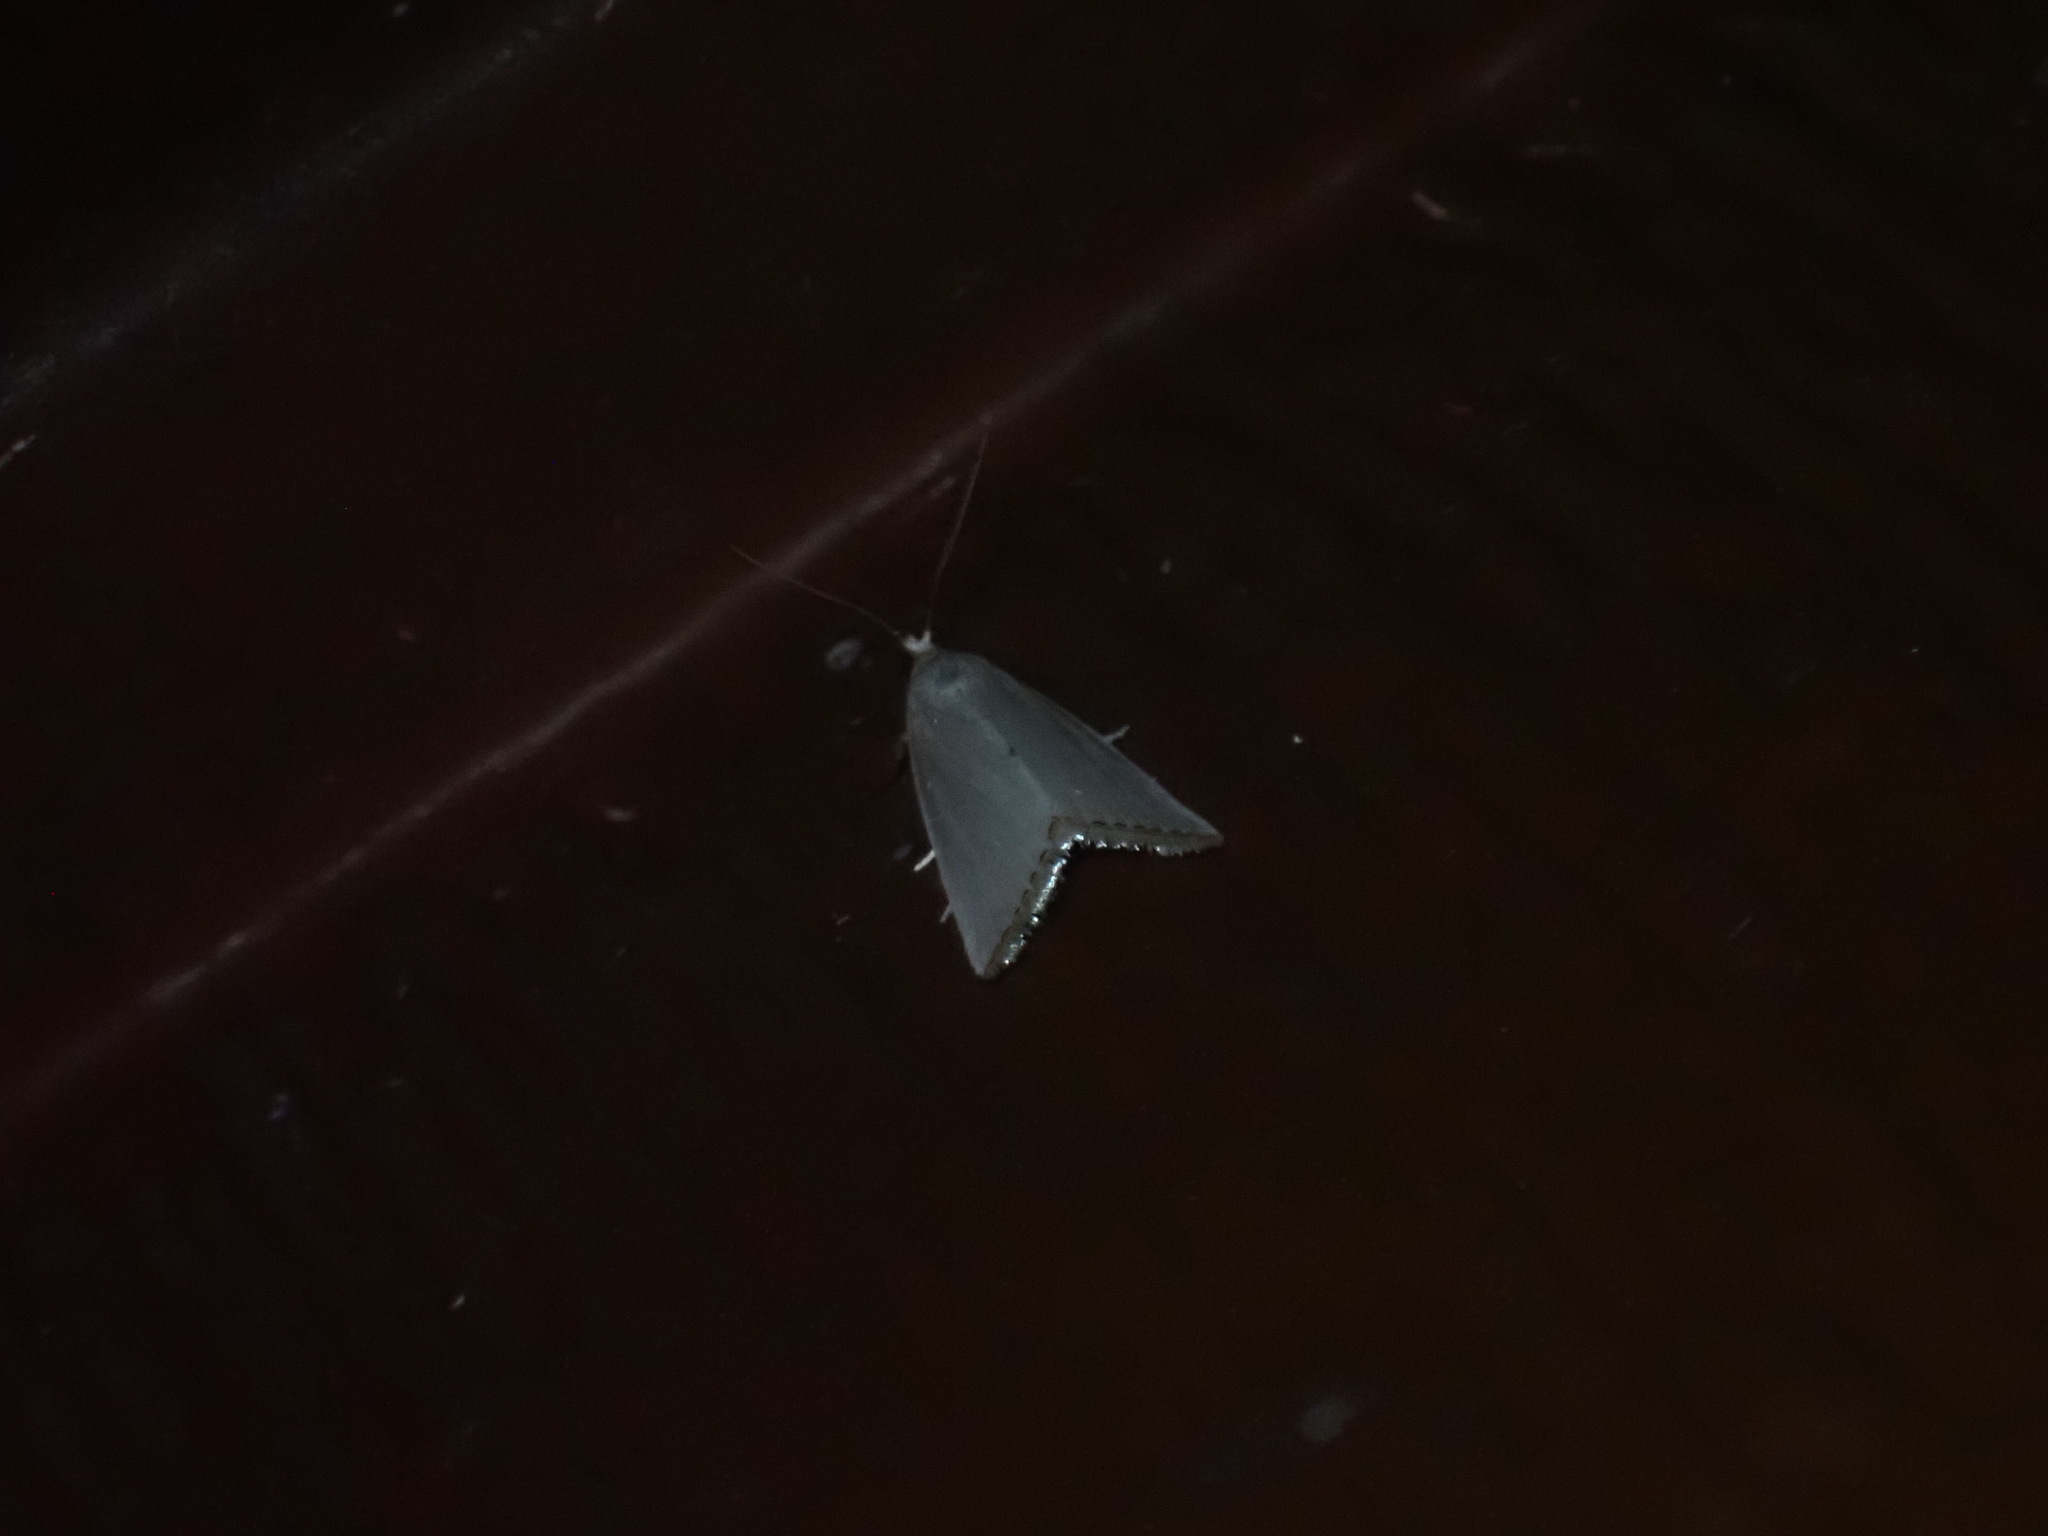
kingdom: Animalia
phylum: Arthropoda
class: Insecta
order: Lepidoptera
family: Crambidae
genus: Argyria
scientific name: Argyria nivalis
